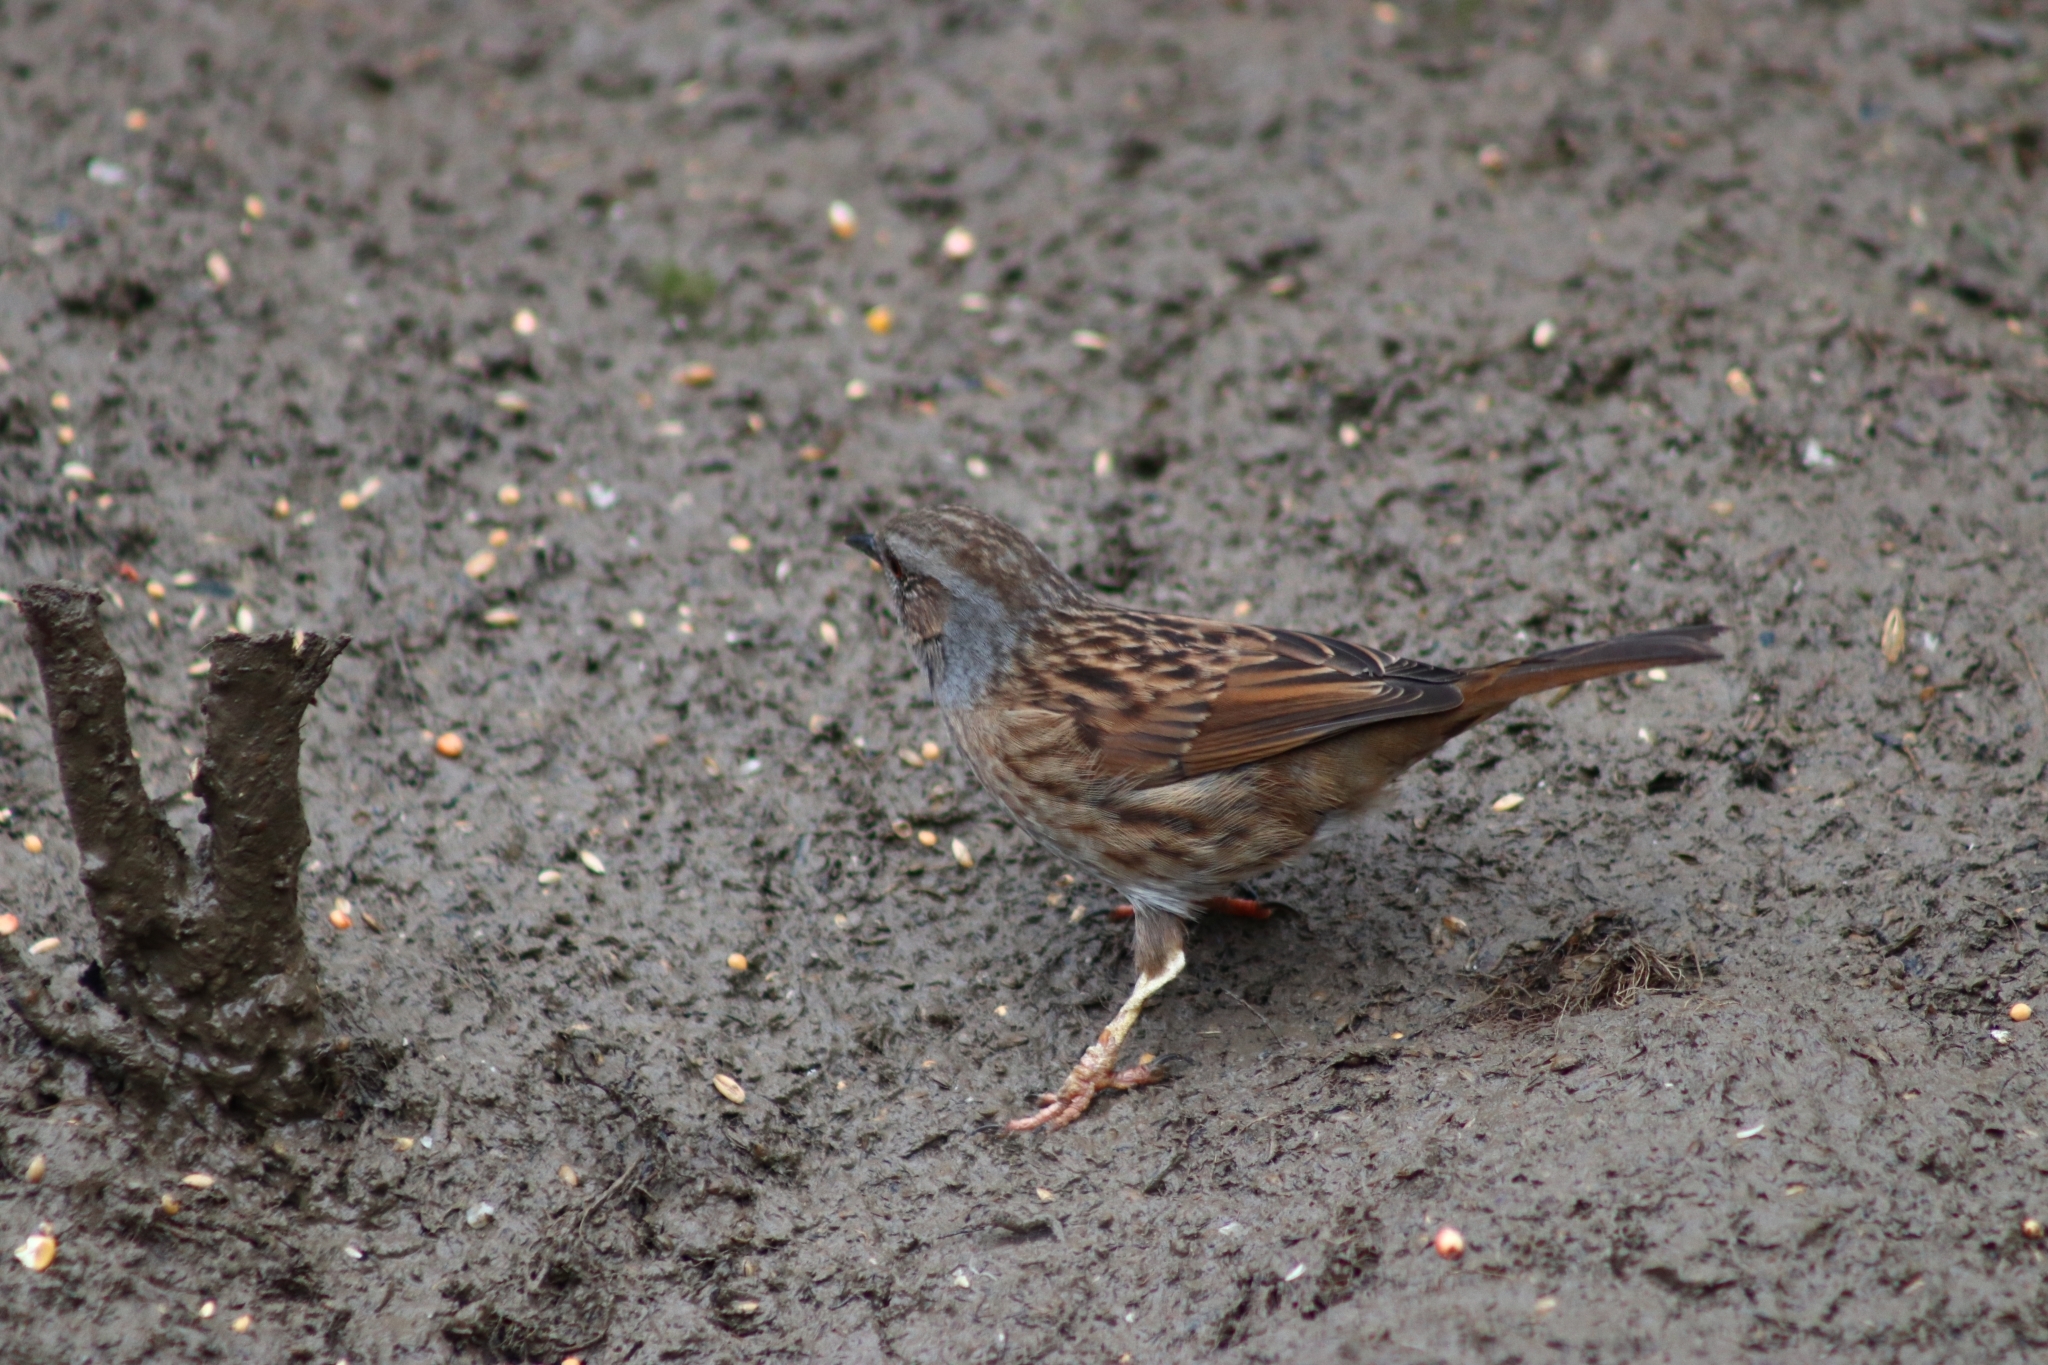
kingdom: Animalia
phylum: Chordata
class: Aves
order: Passeriformes
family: Prunellidae
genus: Prunella
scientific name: Prunella modularis
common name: Dunnock
